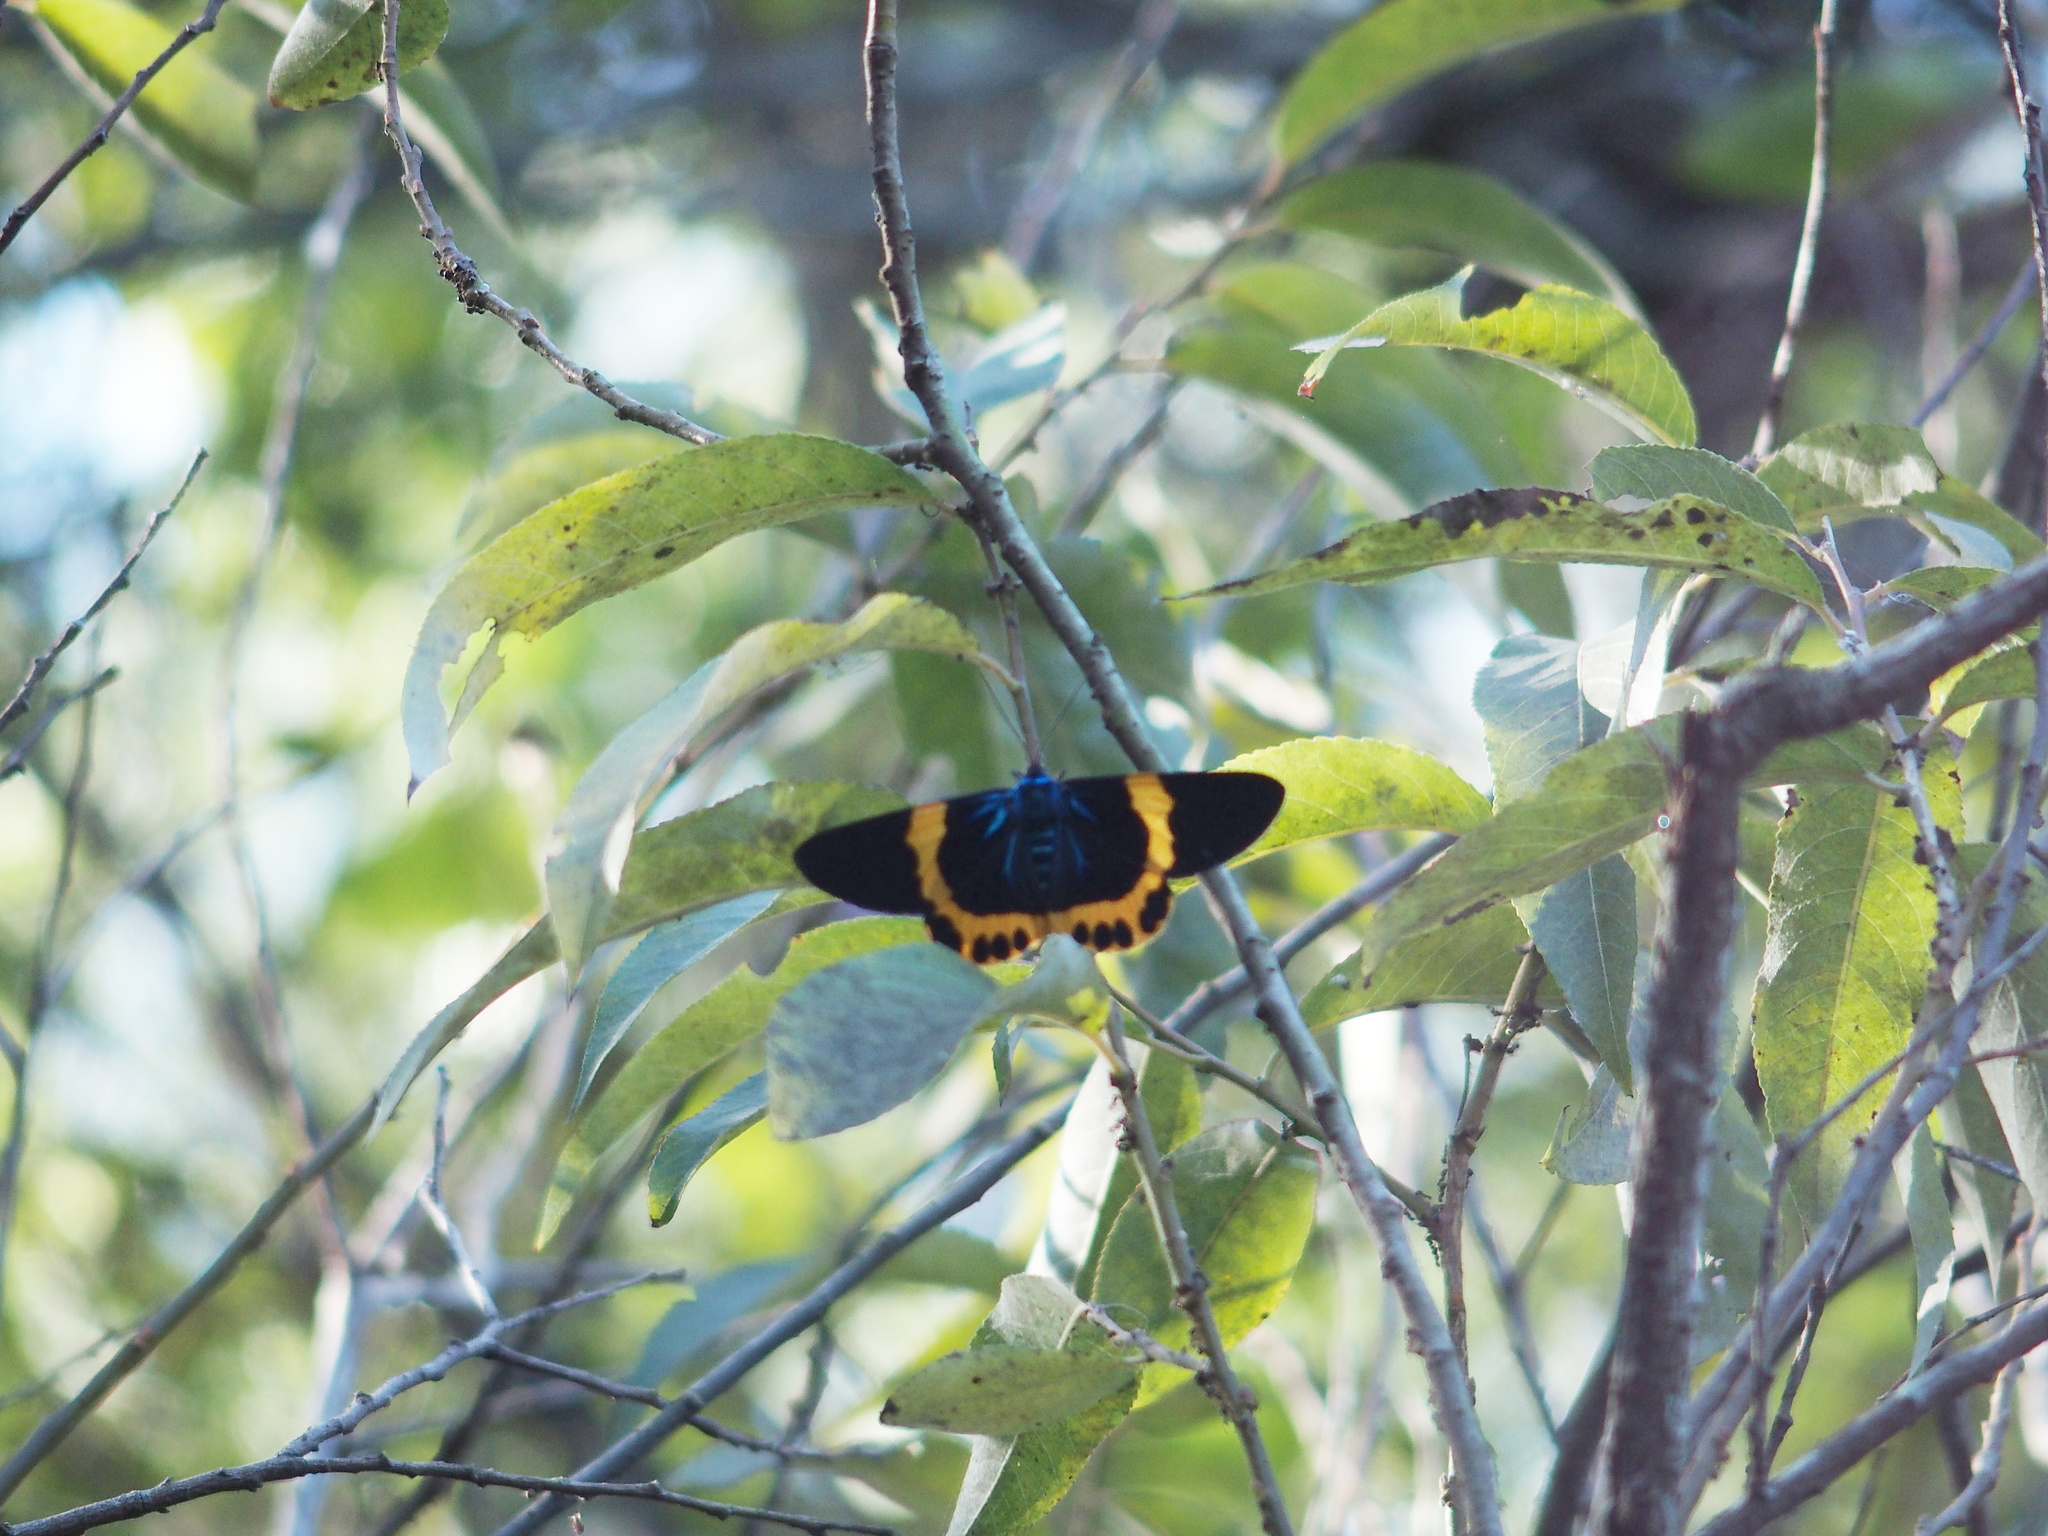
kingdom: Animalia
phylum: Arthropoda
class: Insecta
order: Lepidoptera
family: Geometridae
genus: Milionia
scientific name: Milionia basalis
